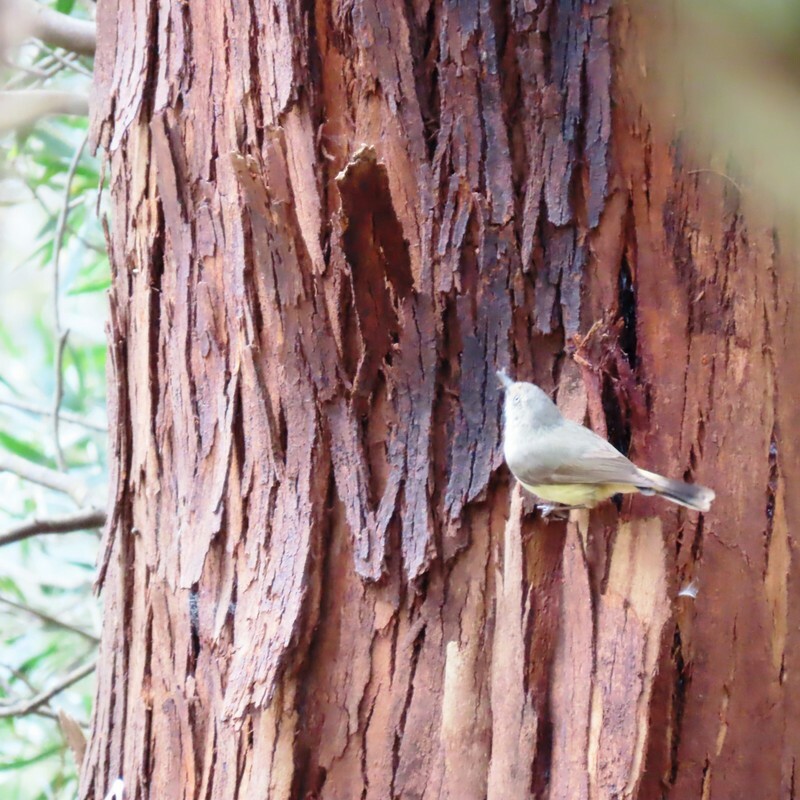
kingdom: Animalia
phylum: Chordata
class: Aves
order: Passeriformes
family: Acanthizidae
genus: Acanthiza
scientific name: Acanthiza reguloides
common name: Buff-rumped thornbill
